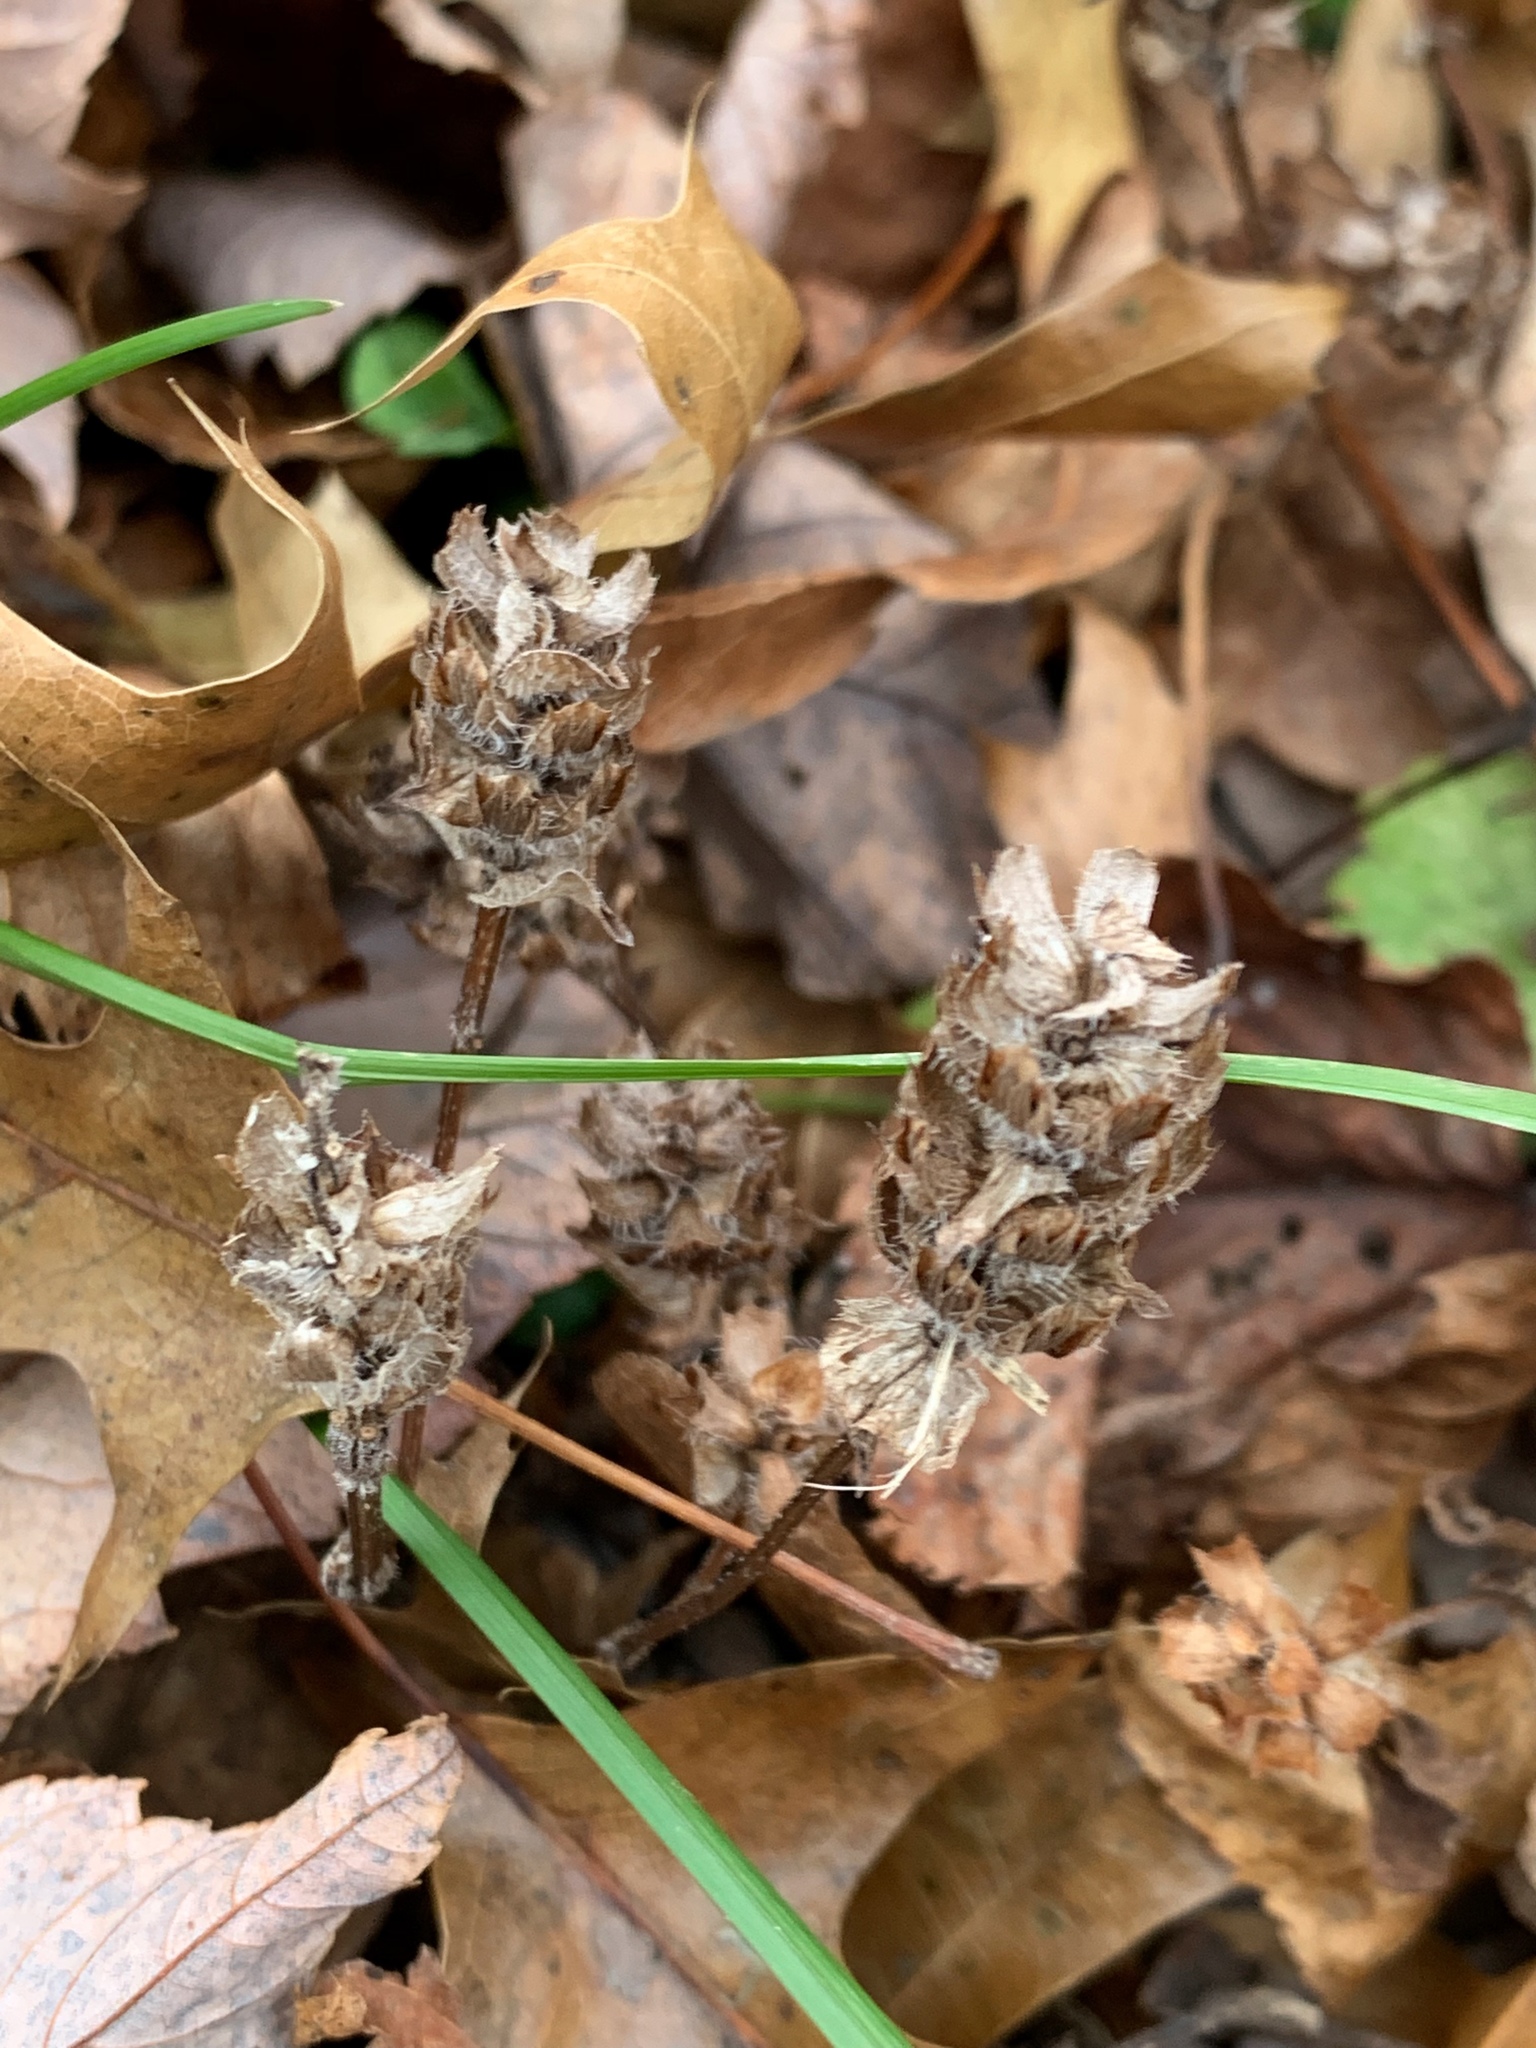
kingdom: Plantae
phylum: Tracheophyta
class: Magnoliopsida
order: Lamiales
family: Lamiaceae
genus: Prunella
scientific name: Prunella vulgaris
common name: Heal-all
